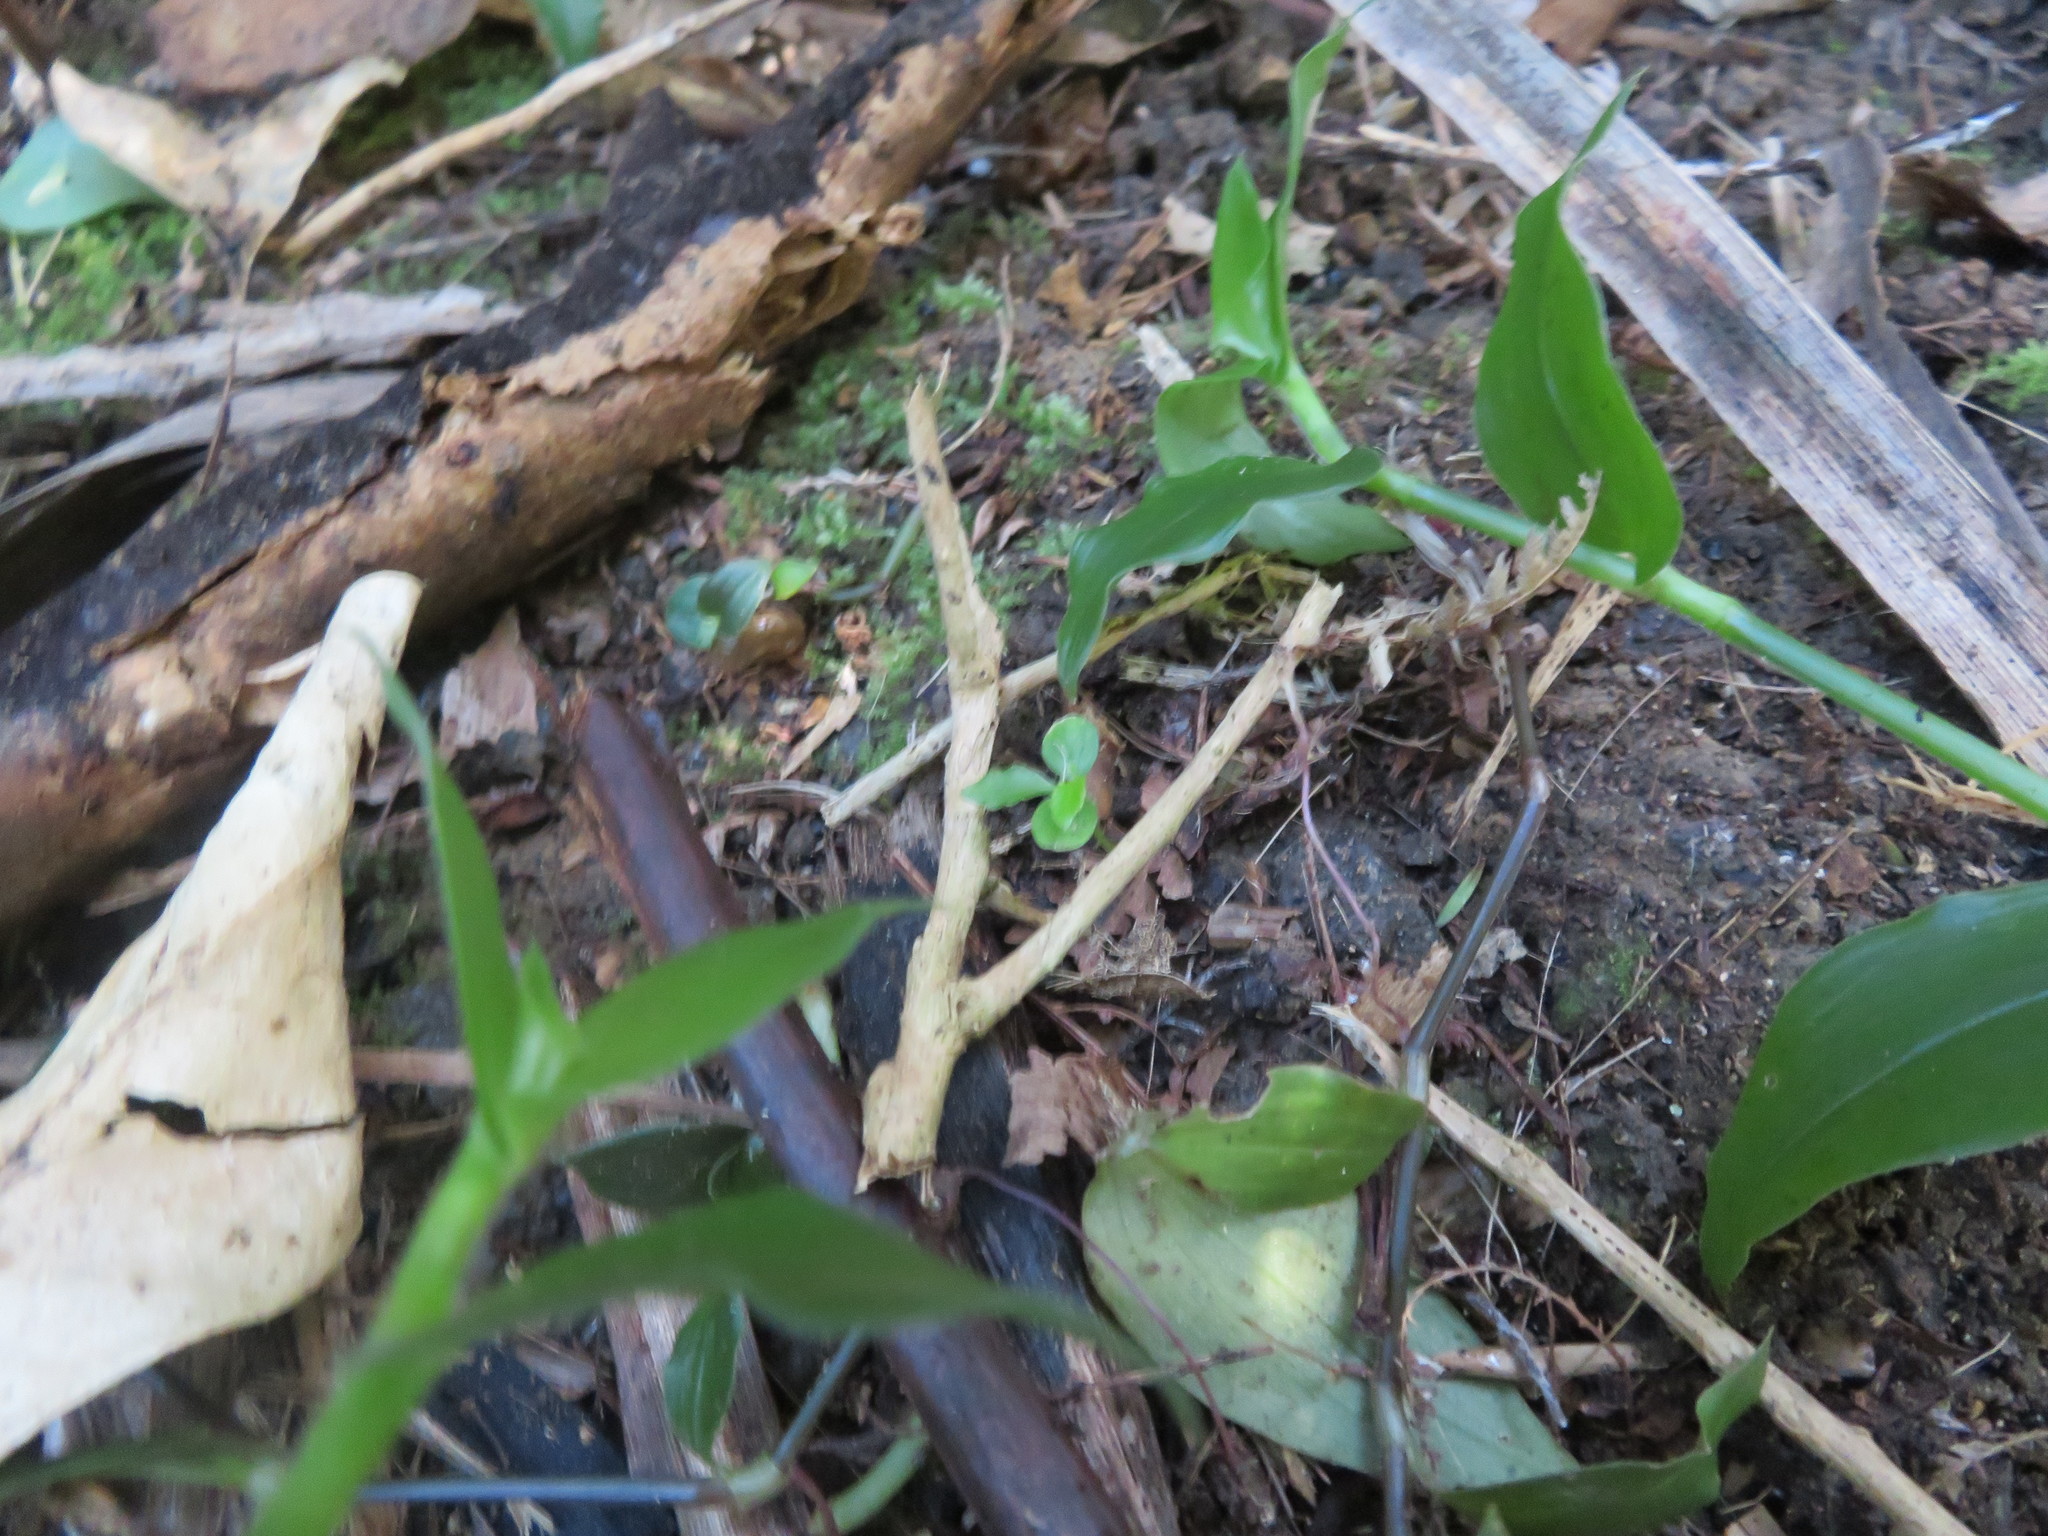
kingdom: Plantae
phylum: Tracheophyta
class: Magnoliopsida
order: Malpighiales
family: Violaceae
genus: Melicytus
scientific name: Melicytus ramiflorus
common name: Mahoe
